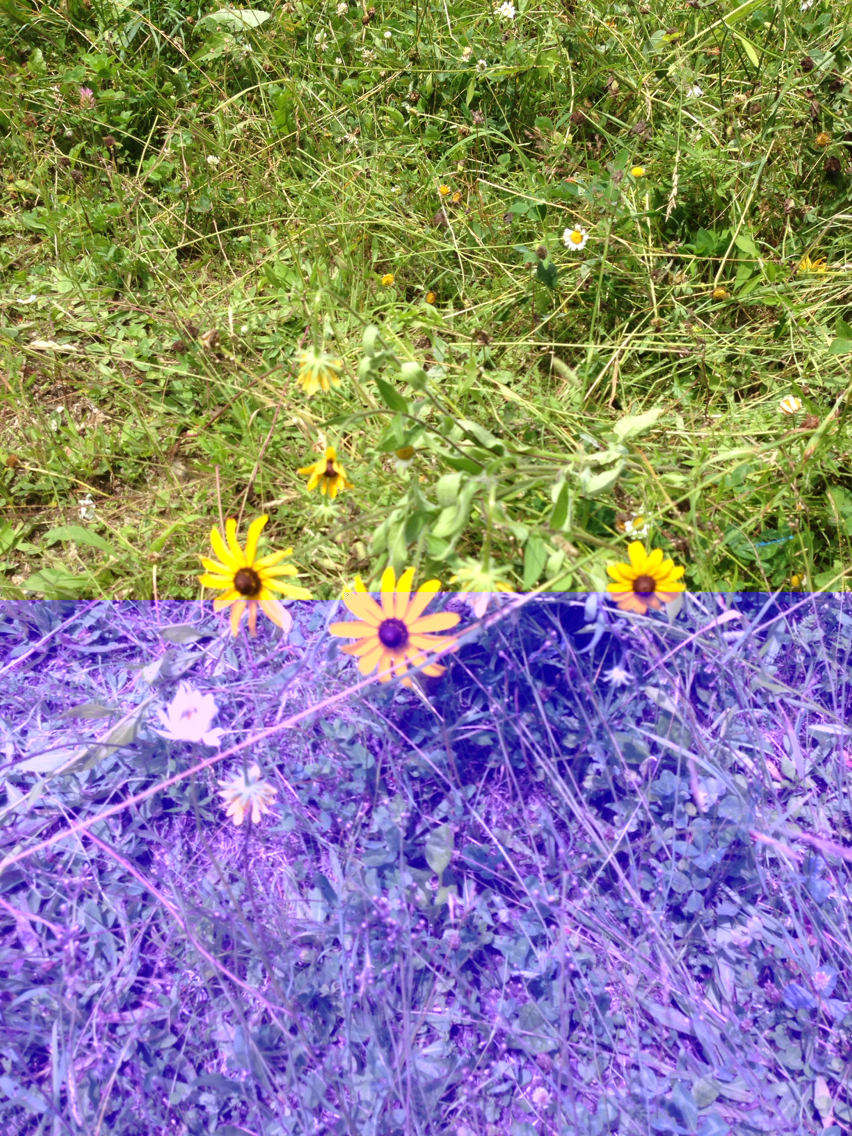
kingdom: Plantae
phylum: Tracheophyta
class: Magnoliopsida
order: Asterales
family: Asteraceae
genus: Rudbeckia
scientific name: Rudbeckia hirta
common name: Black-eyed-susan
